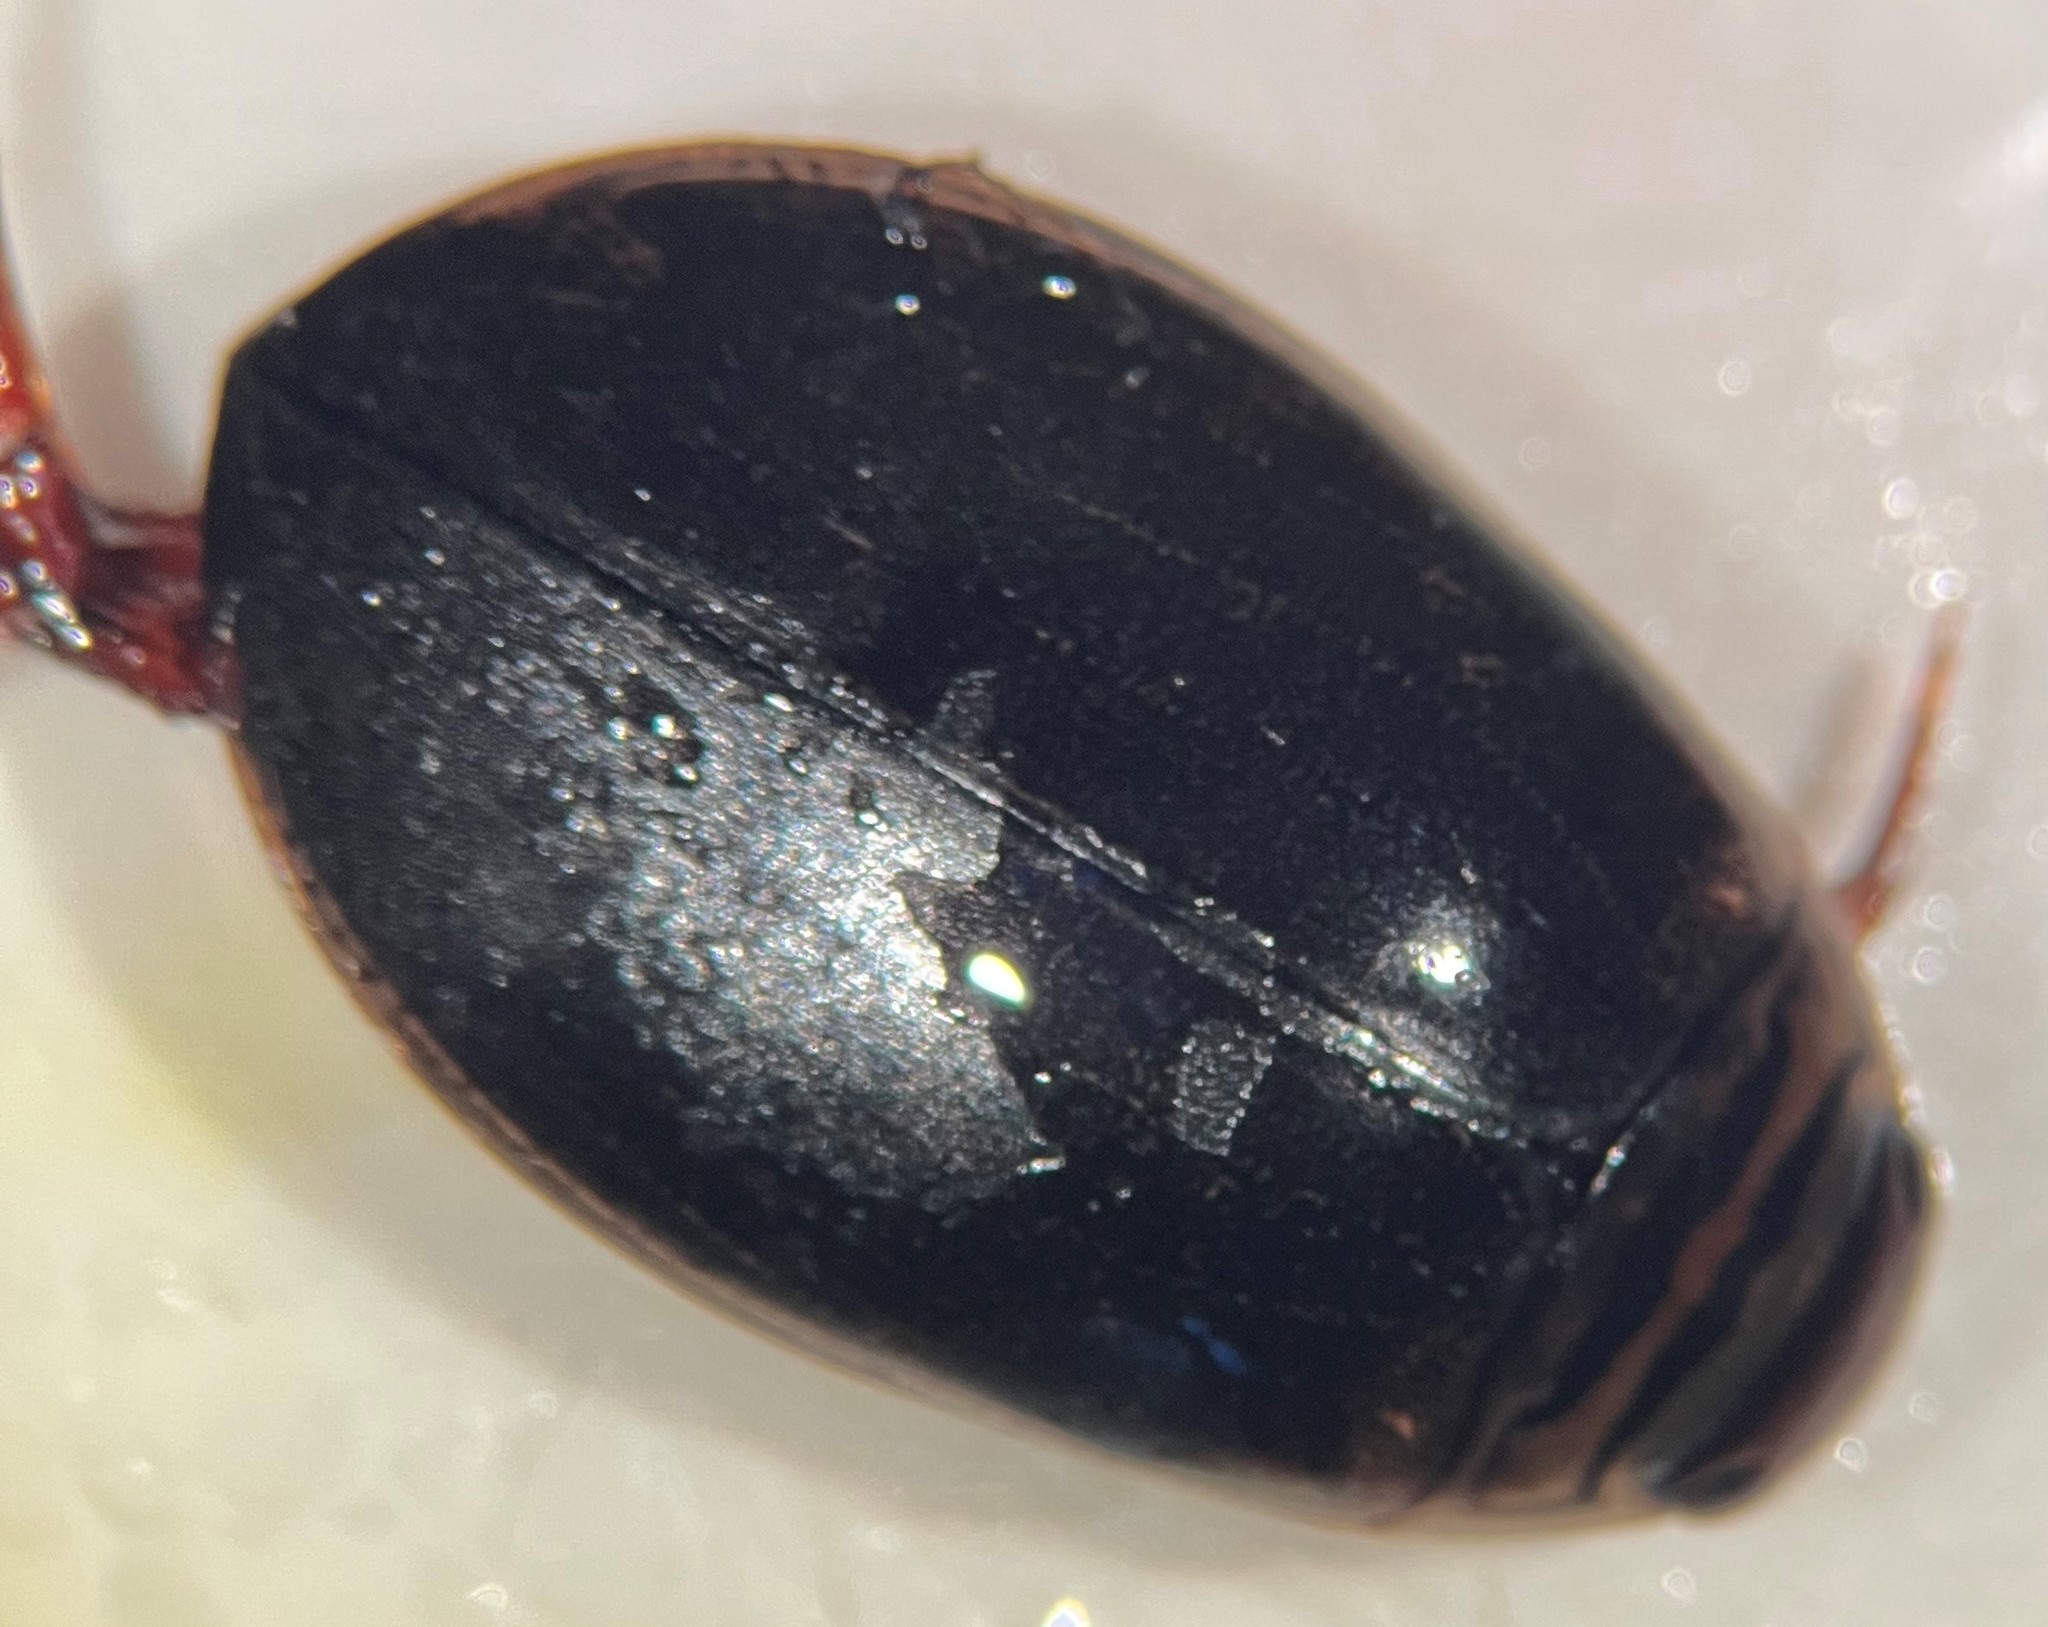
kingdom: Animalia
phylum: Arthropoda
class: Insecta
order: Coleoptera
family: Dytiscidae
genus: Acilius
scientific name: Acilius fraternus
